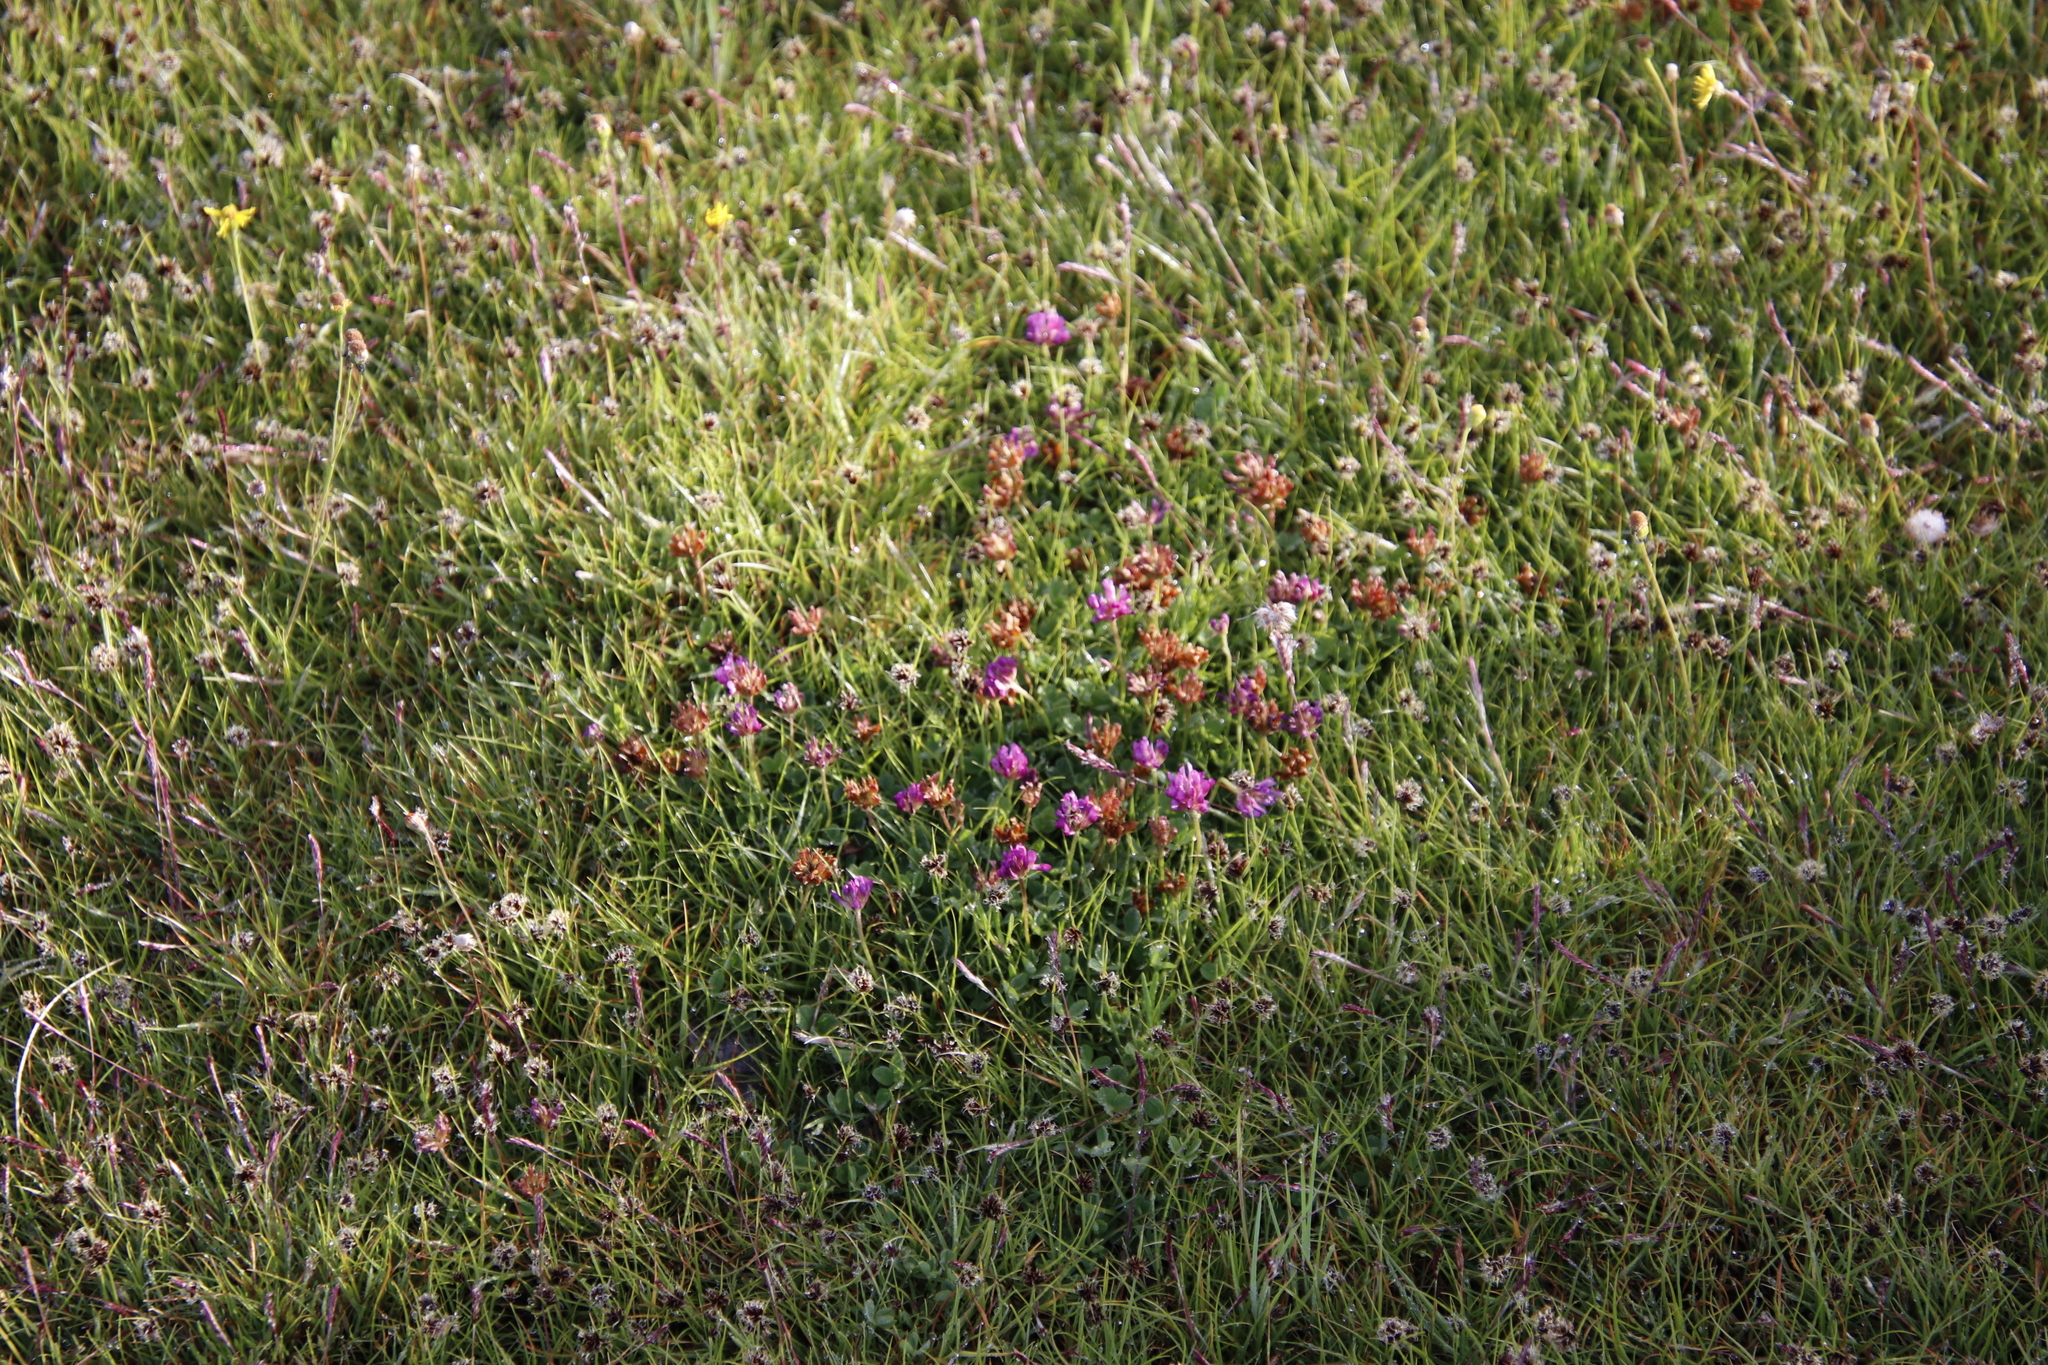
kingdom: Plantae
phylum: Tracheophyta
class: Magnoliopsida
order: Fabales
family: Fabaceae
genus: Trifolium
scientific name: Trifolium burchellianum
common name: Burchell's clover
